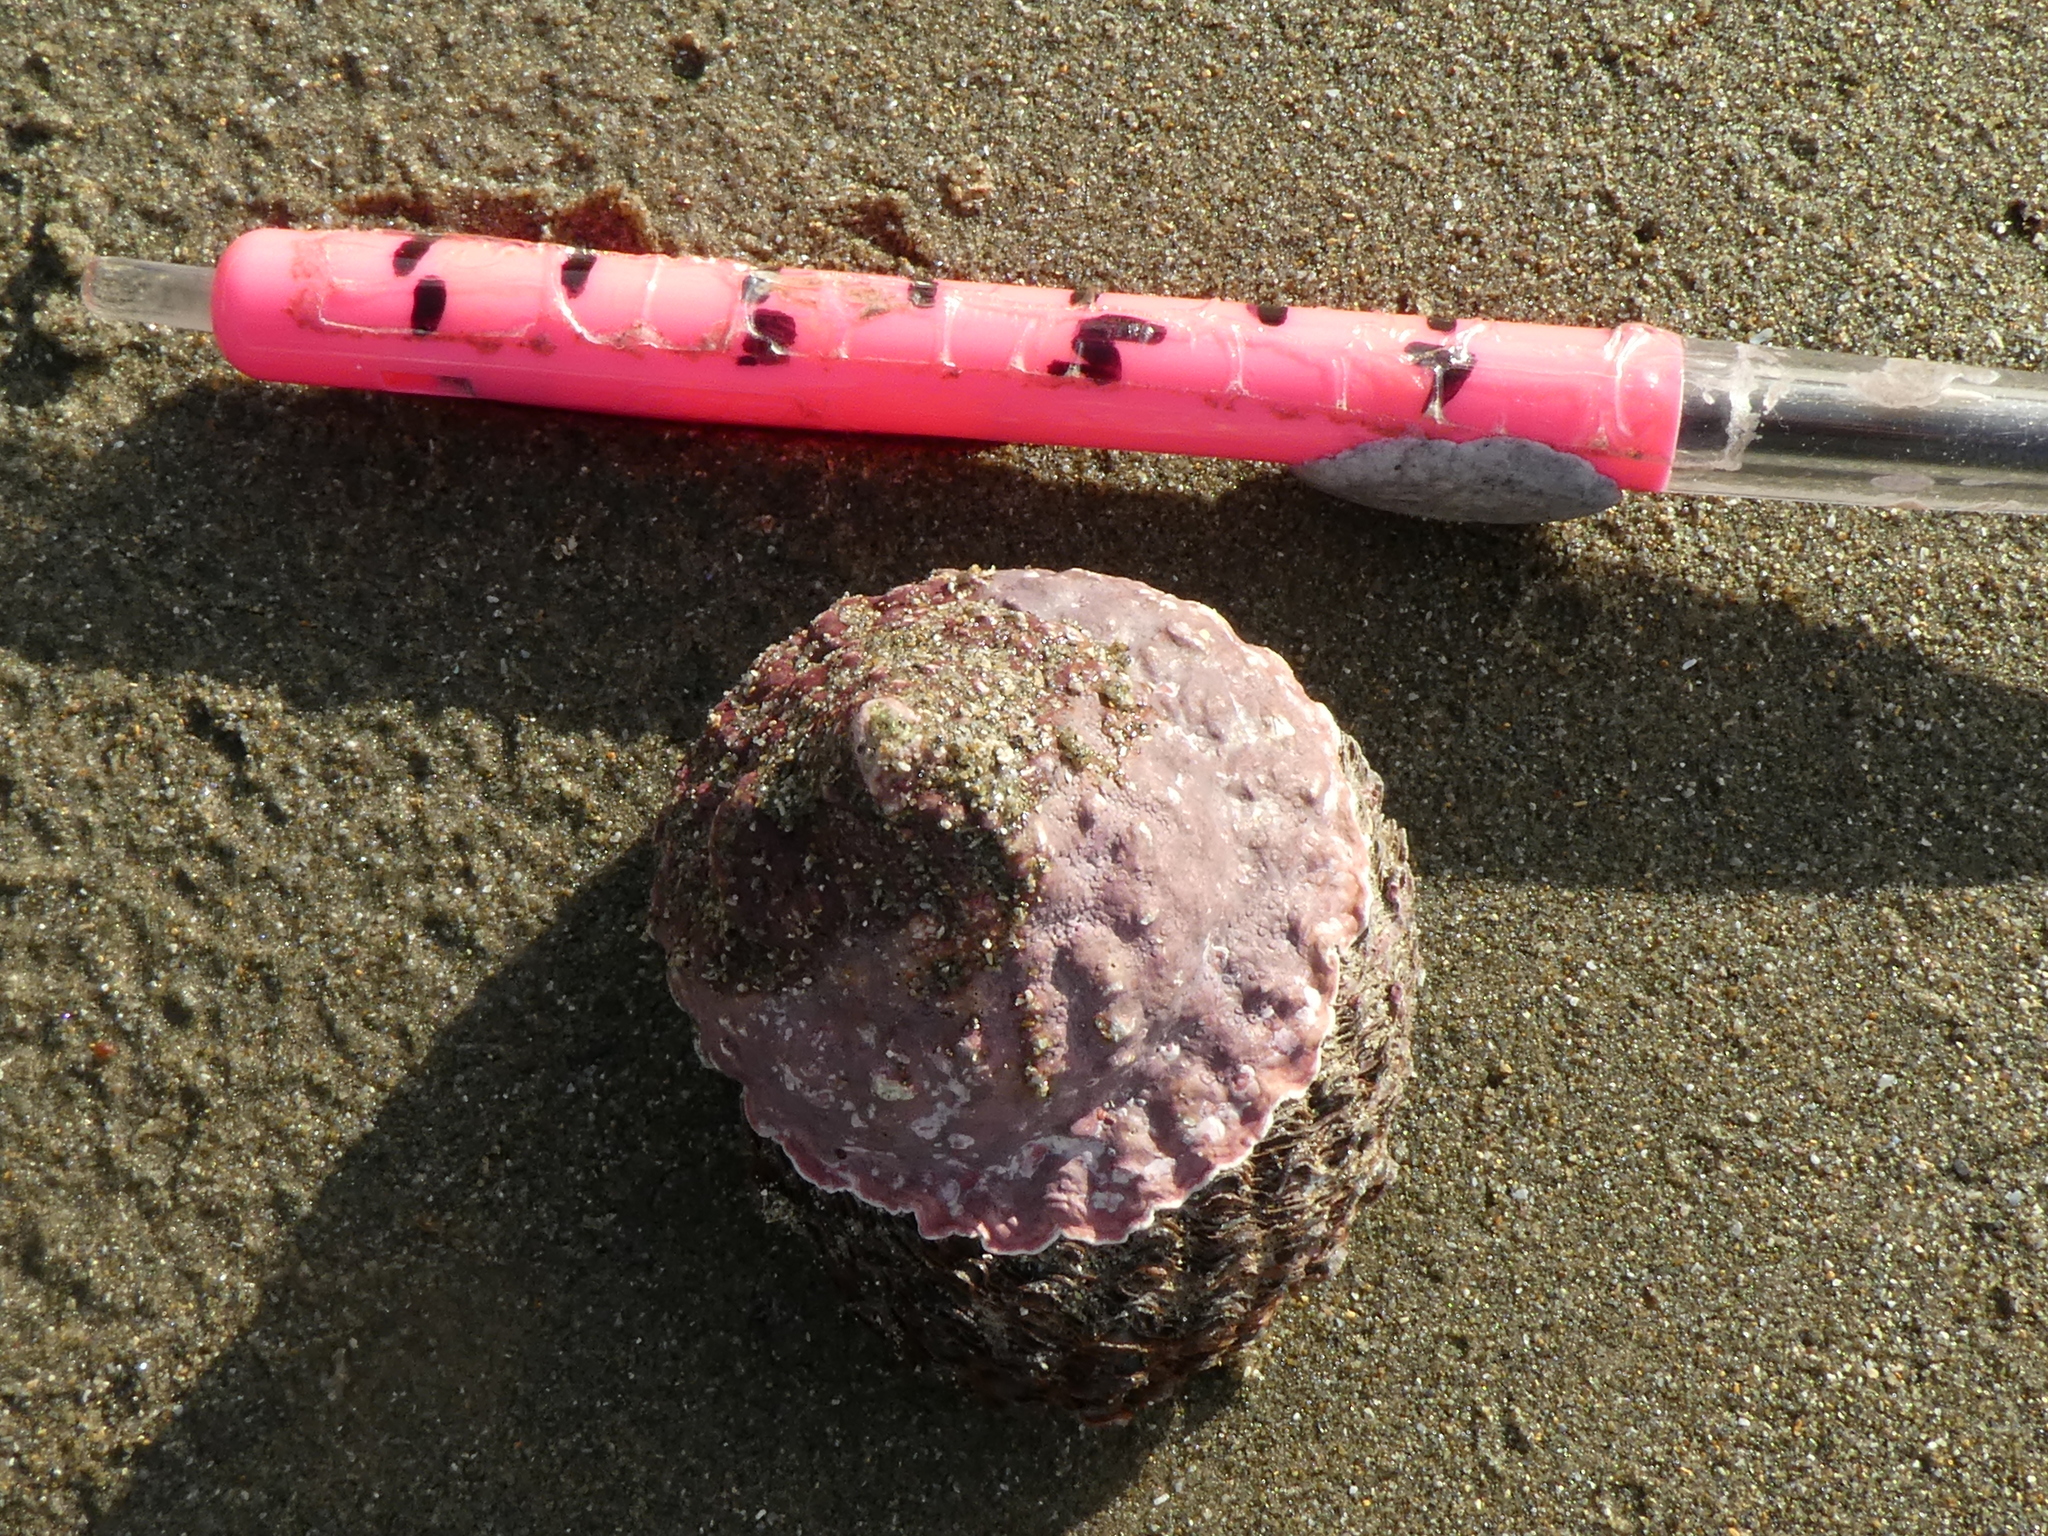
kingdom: Animalia
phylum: Mollusca
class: Gastropoda
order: Trochida
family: Turbinidae
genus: Cookia
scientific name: Cookia sulcata
